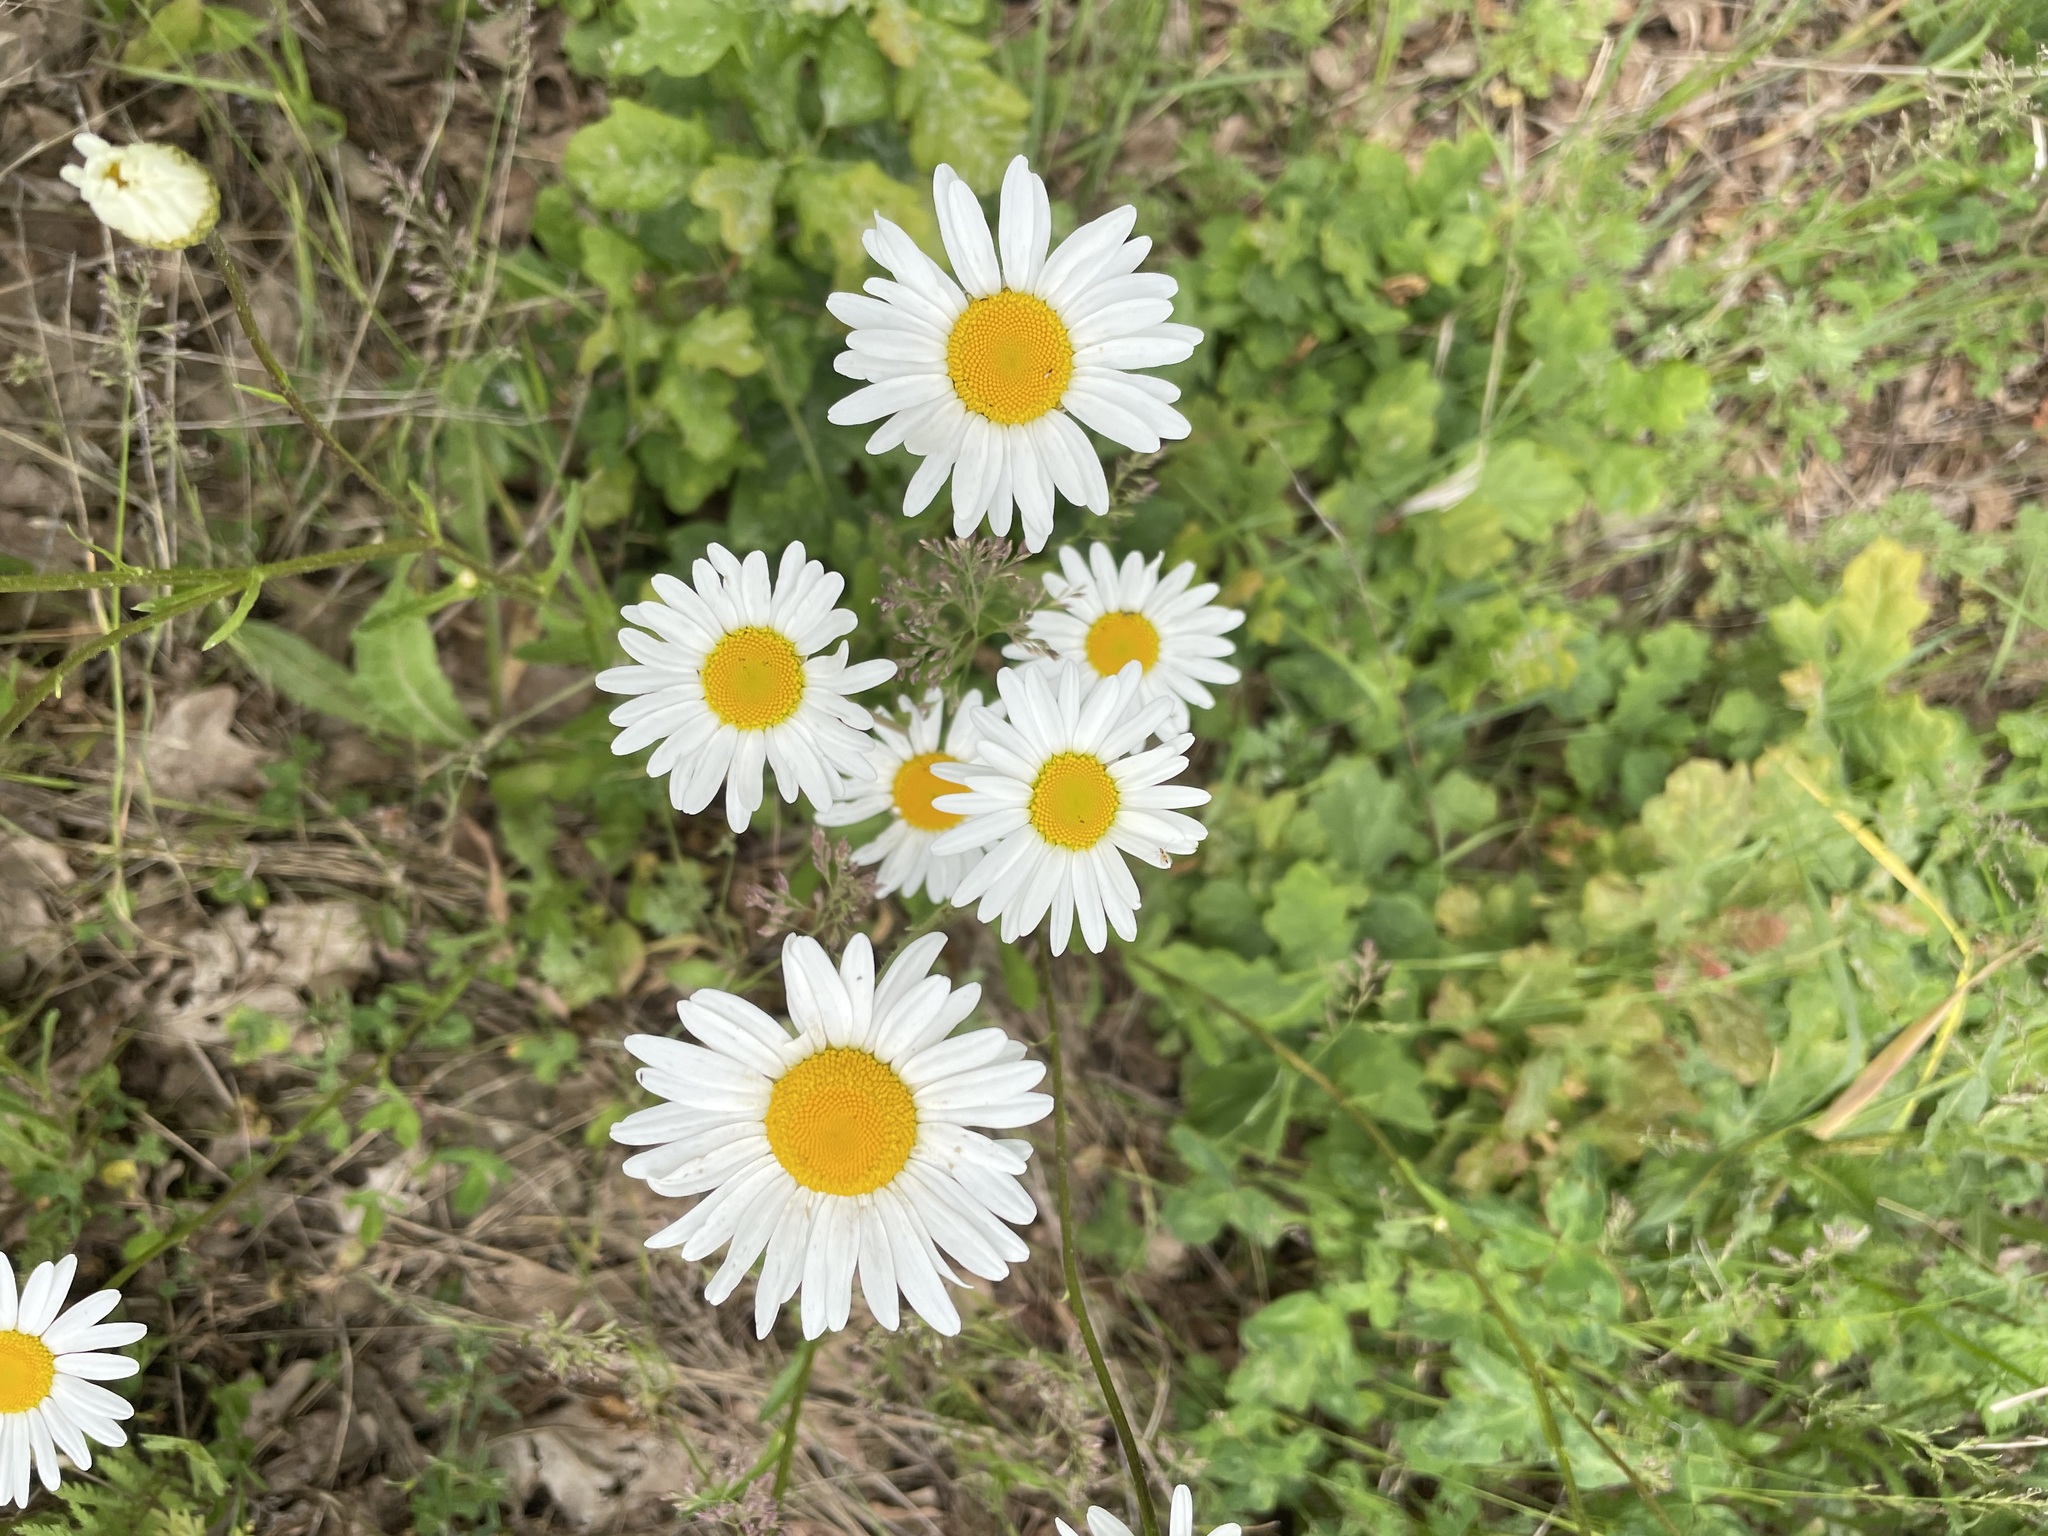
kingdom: Plantae
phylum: Tracheophyta
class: Magnoliopsida
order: Asterales
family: Asteraceae
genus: Leucanthemum
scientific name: Leucanthemum vulgare
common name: Oxeye daisy
